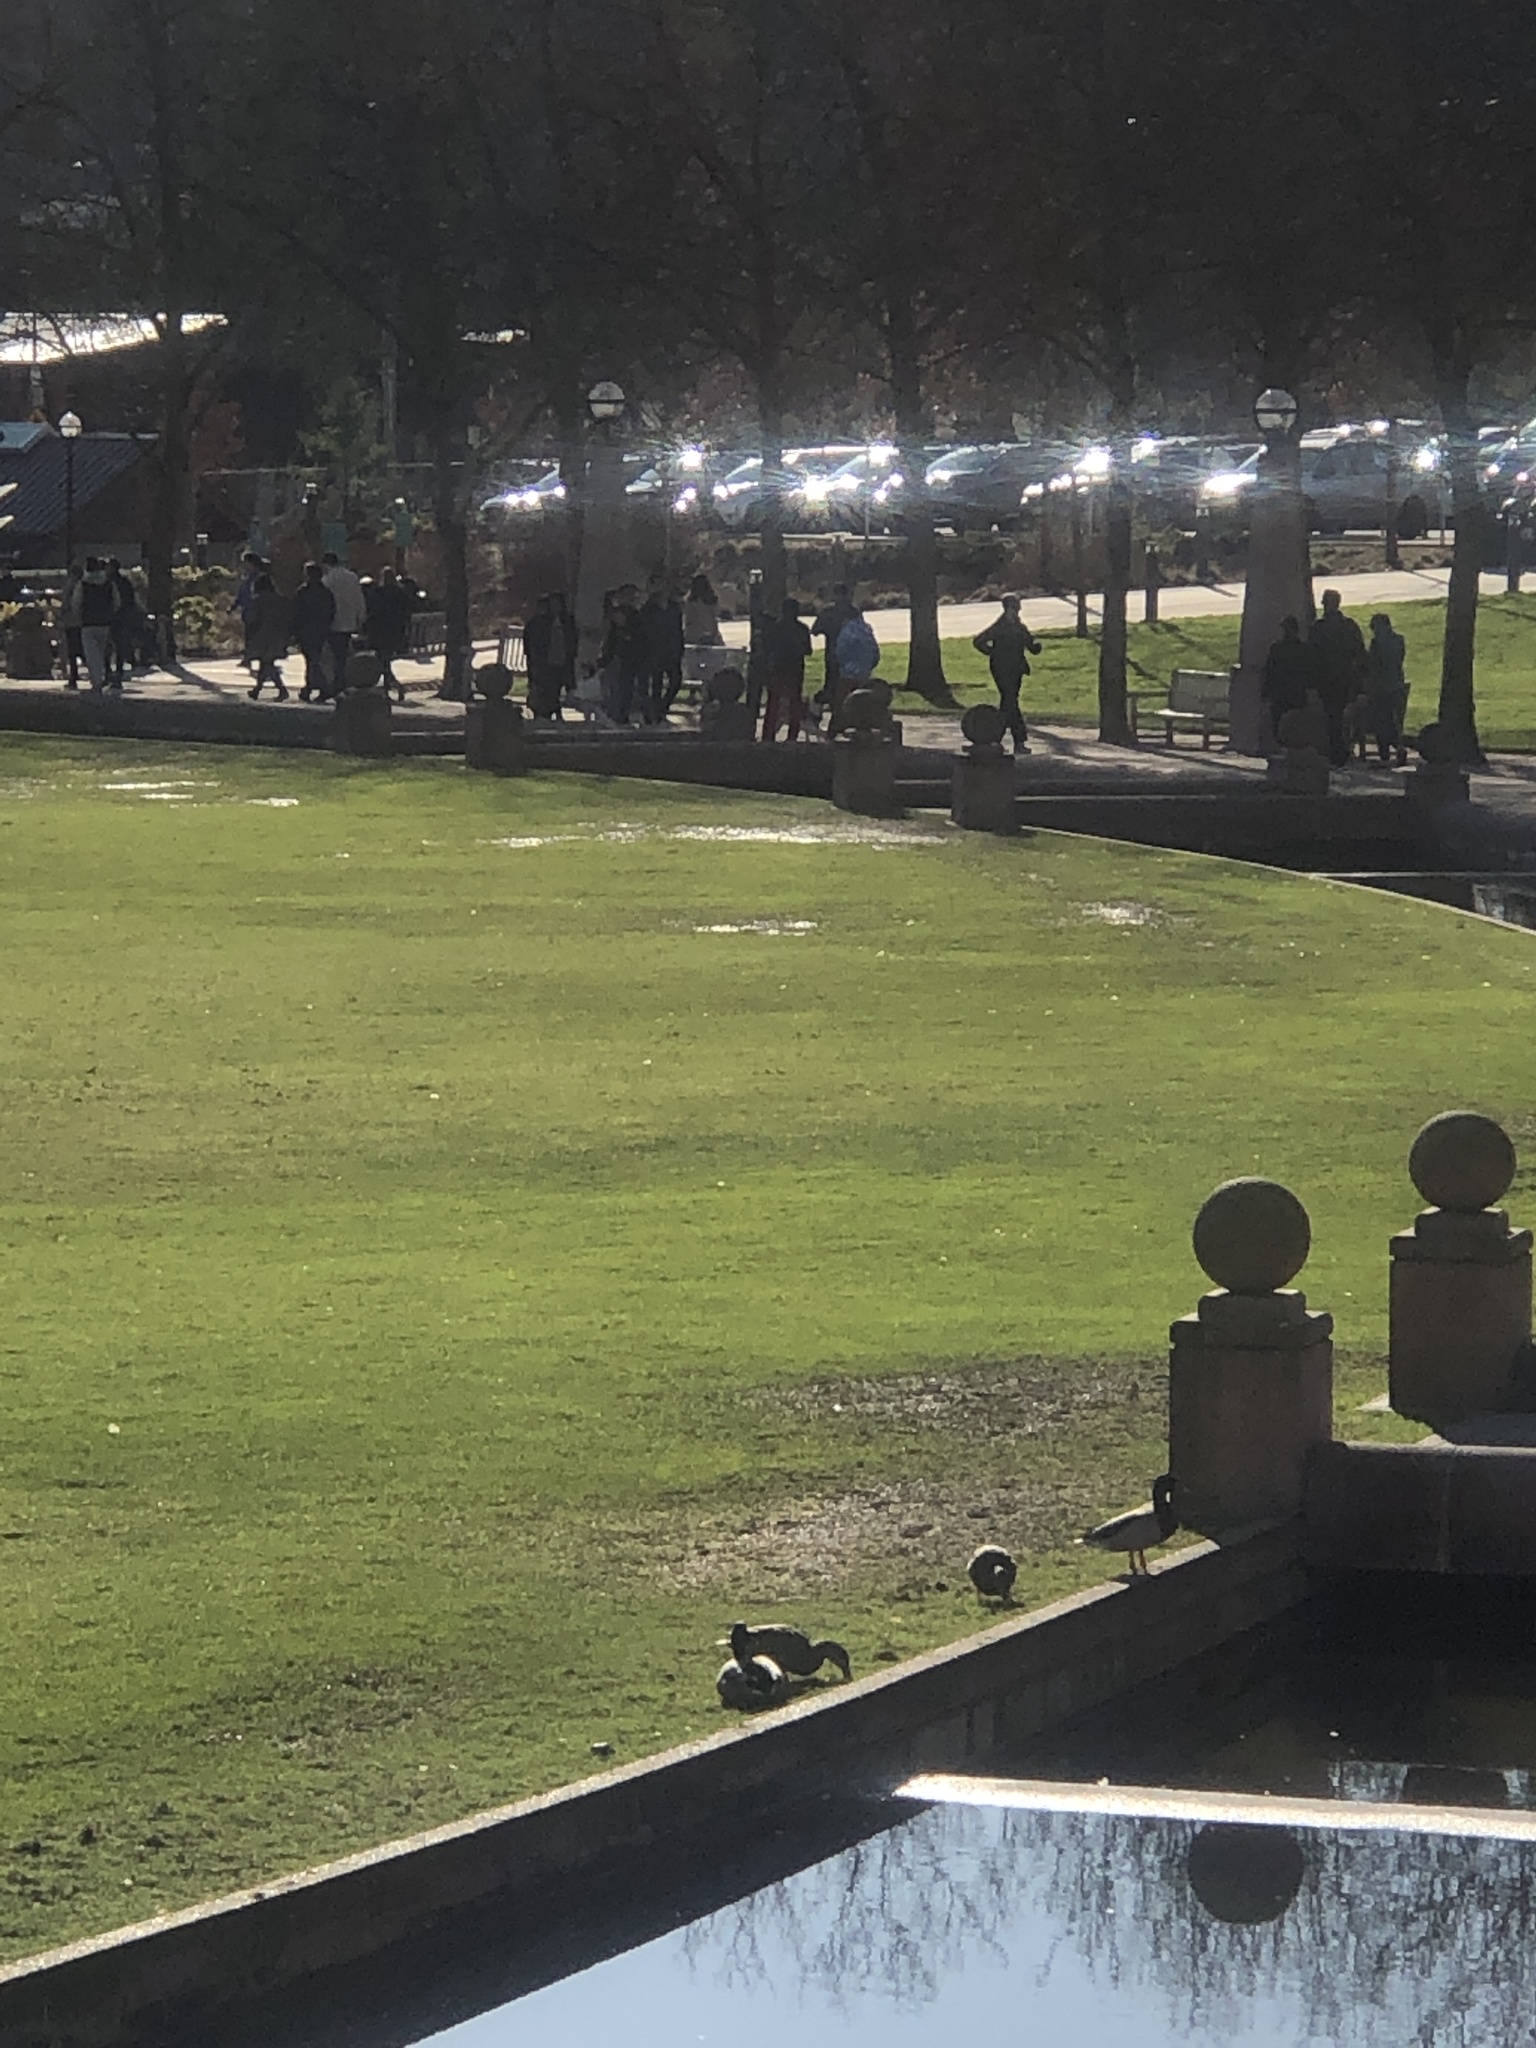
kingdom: Animalia
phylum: Chordata
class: Aves
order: Anseriformes
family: Anatidae
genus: Anas
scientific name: Anas platyrhynchos
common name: Mallard
